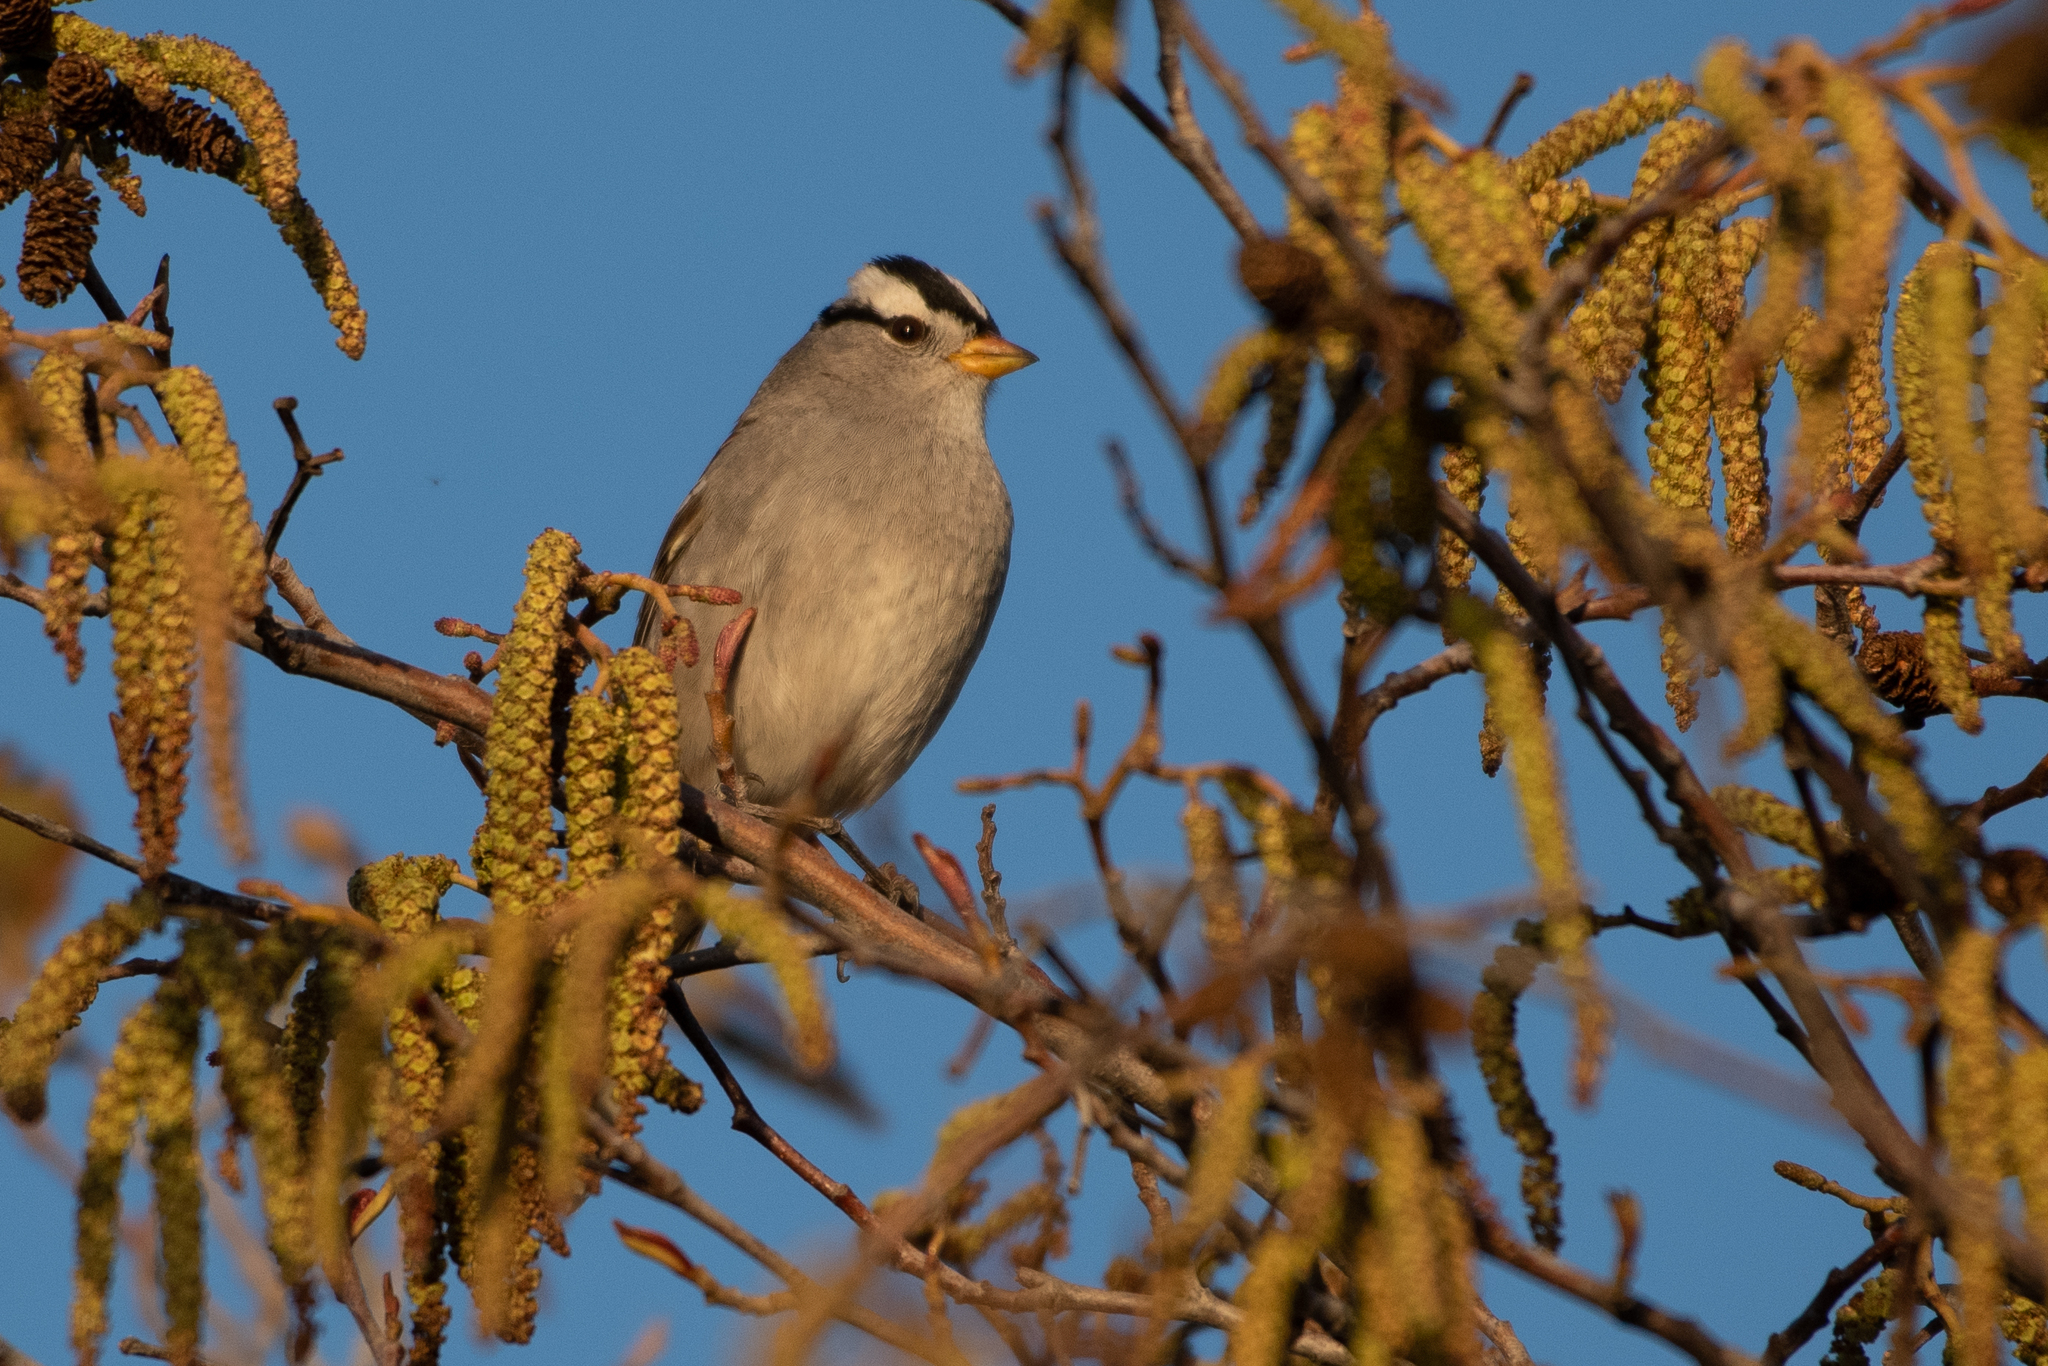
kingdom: Animalia
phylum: Chordata
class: Aves
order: Passeriformes
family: Passerellidae
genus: Zonotrichia
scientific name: Zonotrichia leucophrys
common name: White-crowned sparrow
